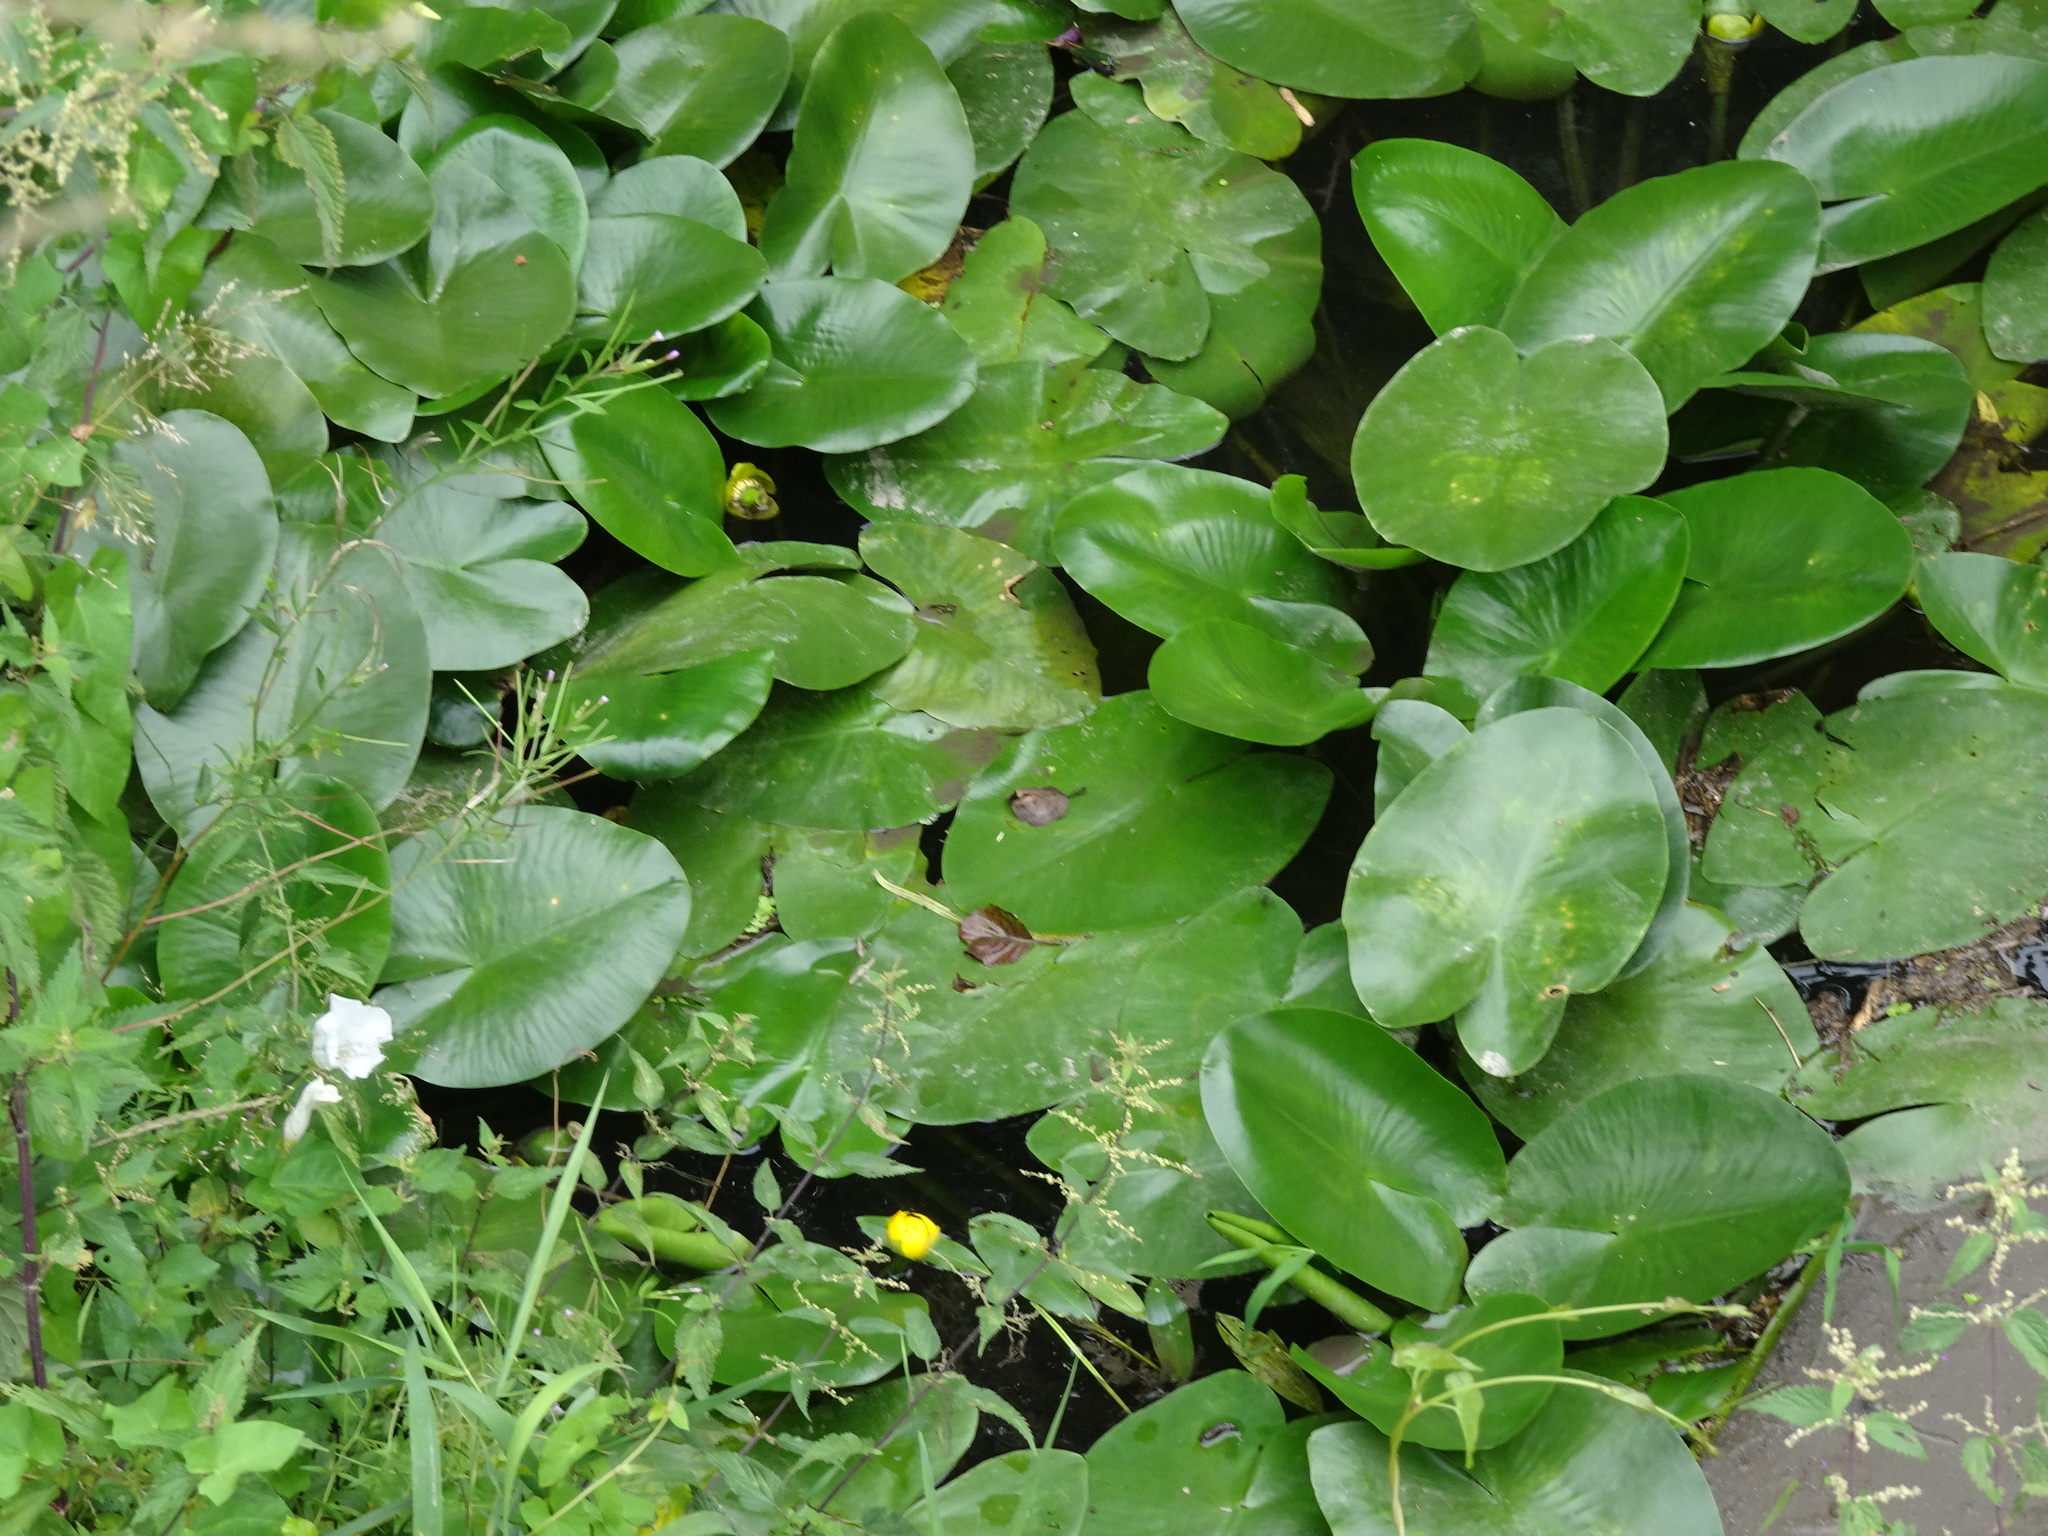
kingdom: Plantae
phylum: Tracheophyta
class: Magnoliopsida
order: Nymphaeales
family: Nymphaeaceae
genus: Nuphar
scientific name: Nuphar lutea
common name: Yellow water-lily
